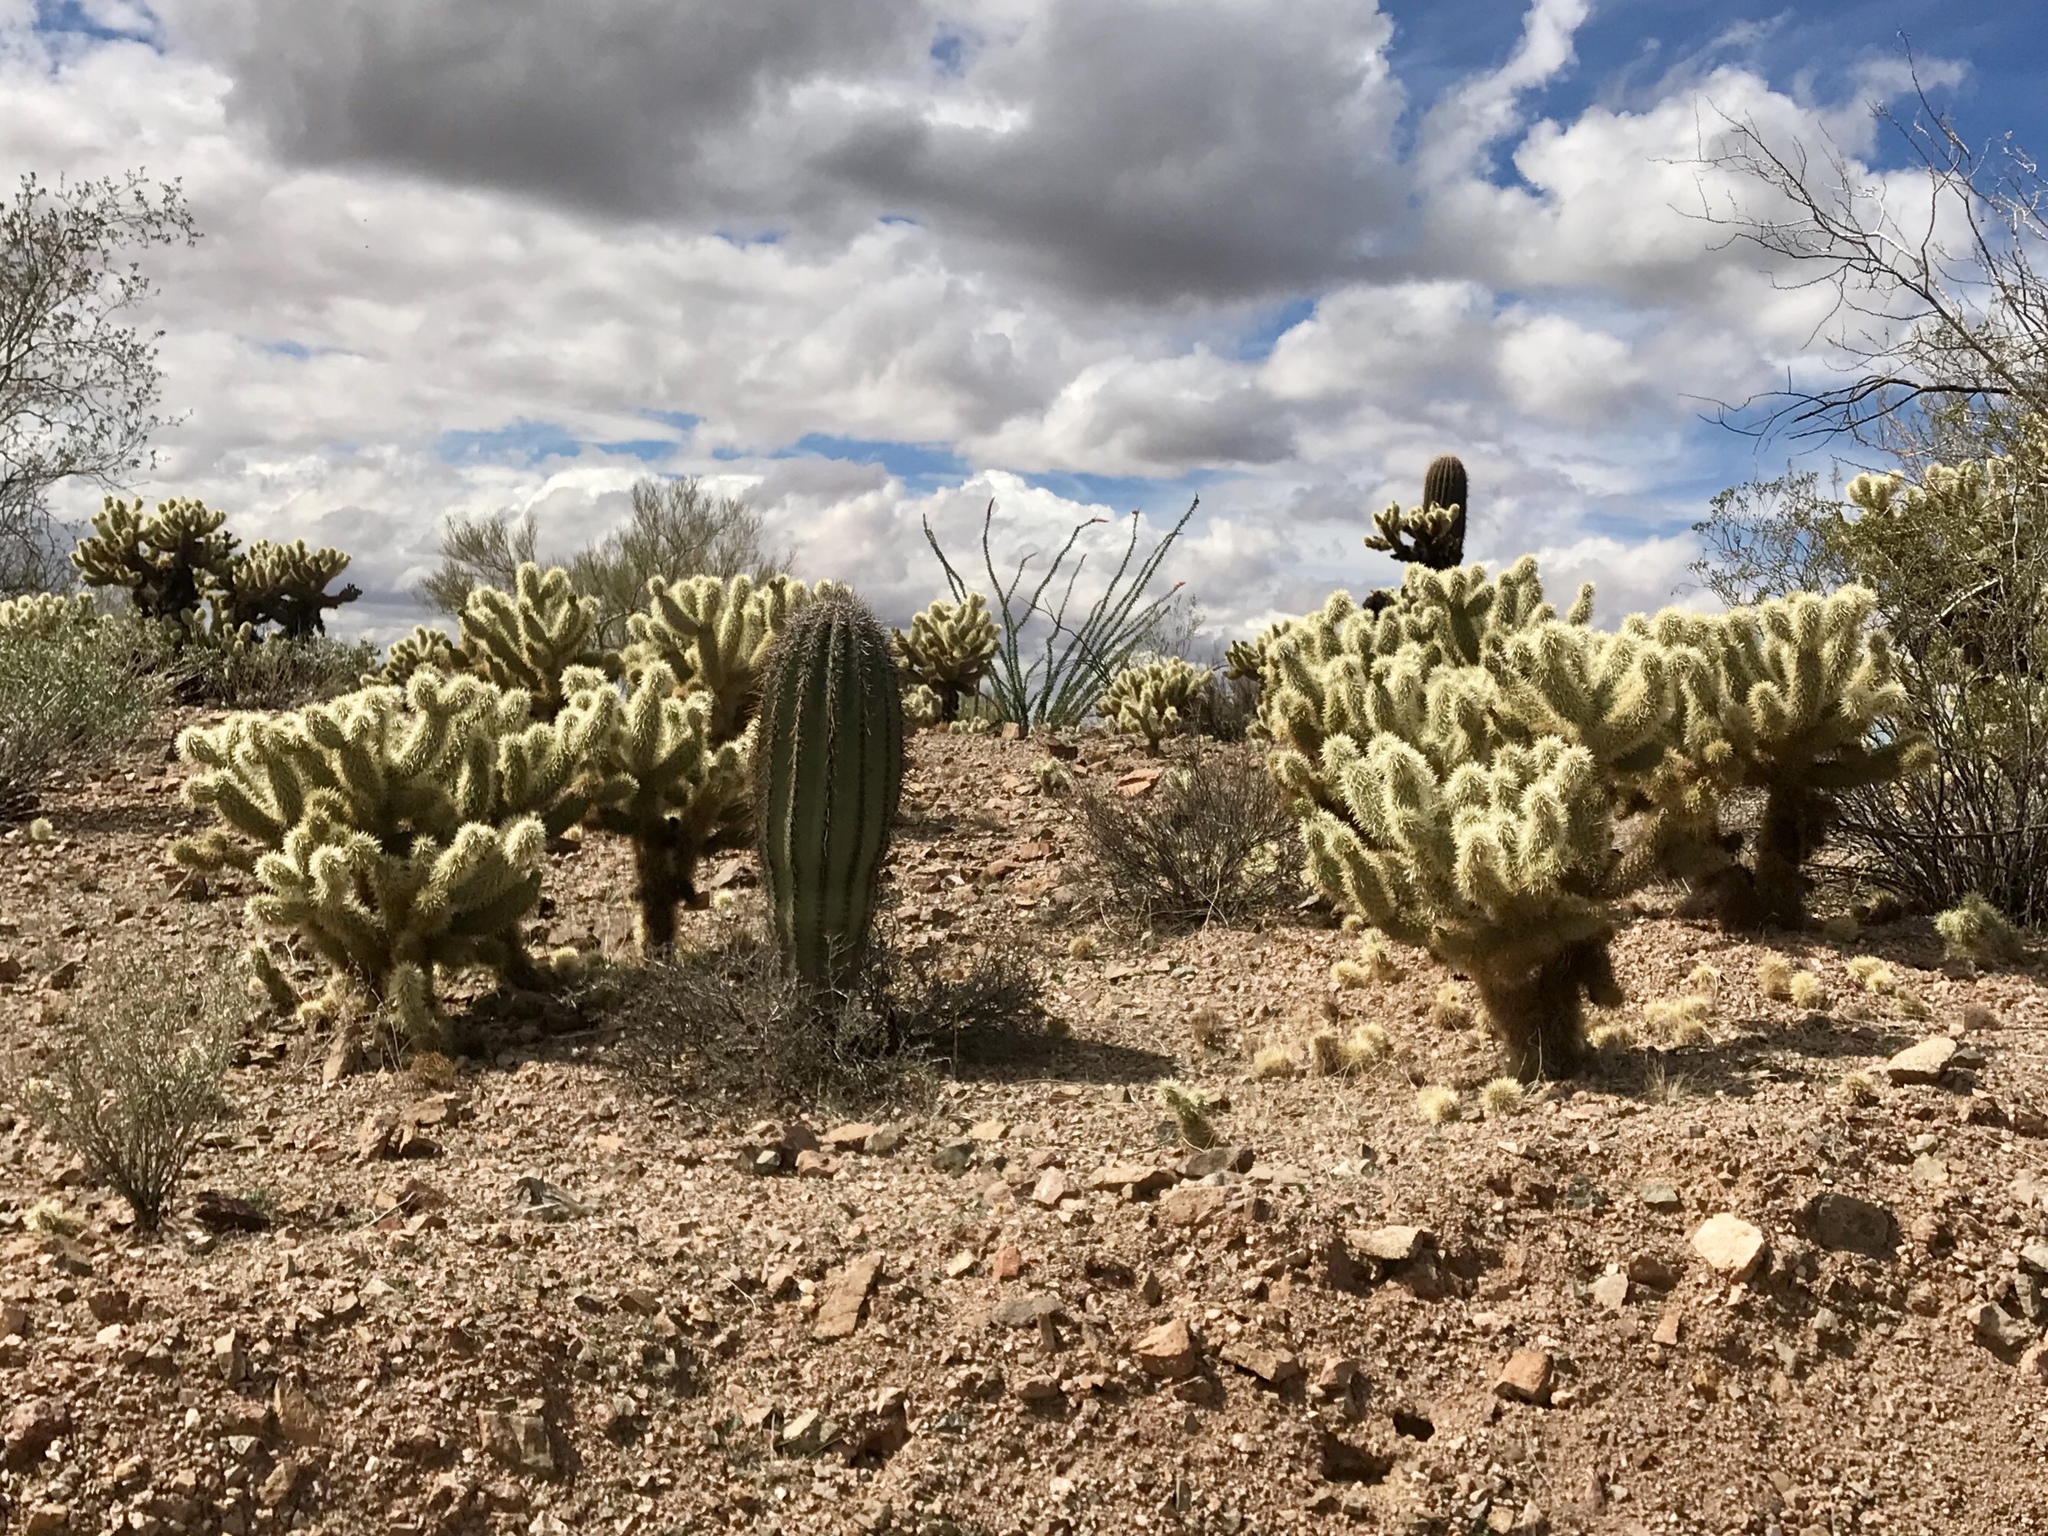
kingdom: Plantae
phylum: Tracheophyta
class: Magnoliopsida
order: Caryophyllales
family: Cactaceae
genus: Cylindropuntia
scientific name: Cylindropuntia fosbergii
